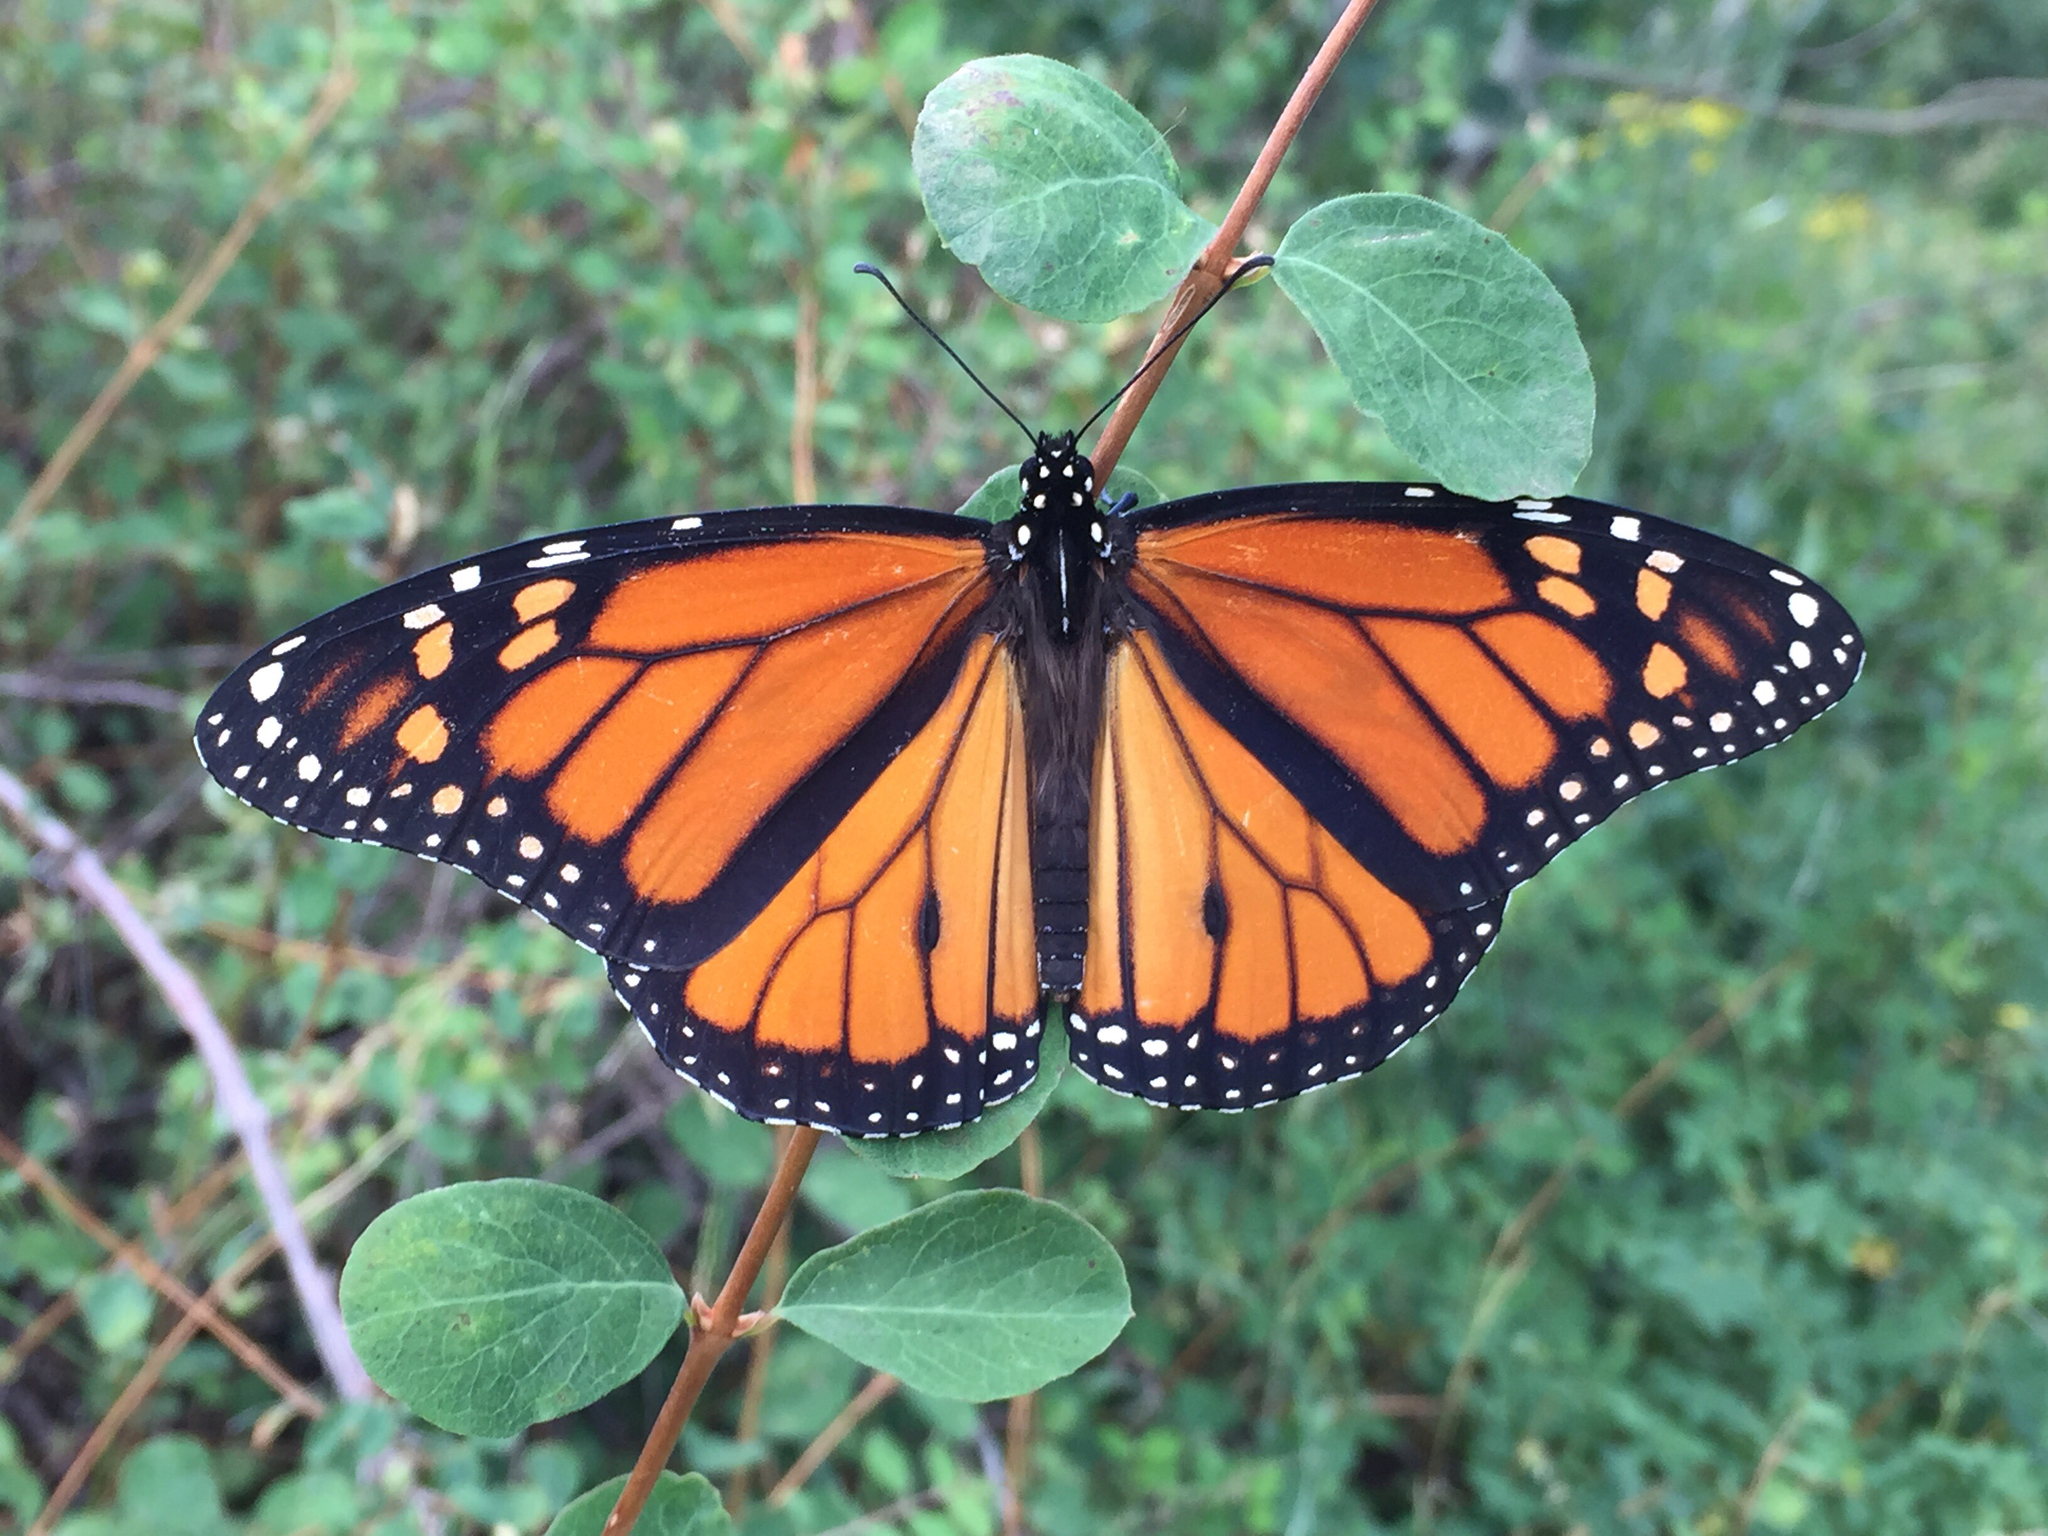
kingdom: Animalia
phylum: Arthropoda
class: Insecta
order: Lepidoptera
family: Nymphalidae
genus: Danaus
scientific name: Danaus plexippus
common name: Monarch
